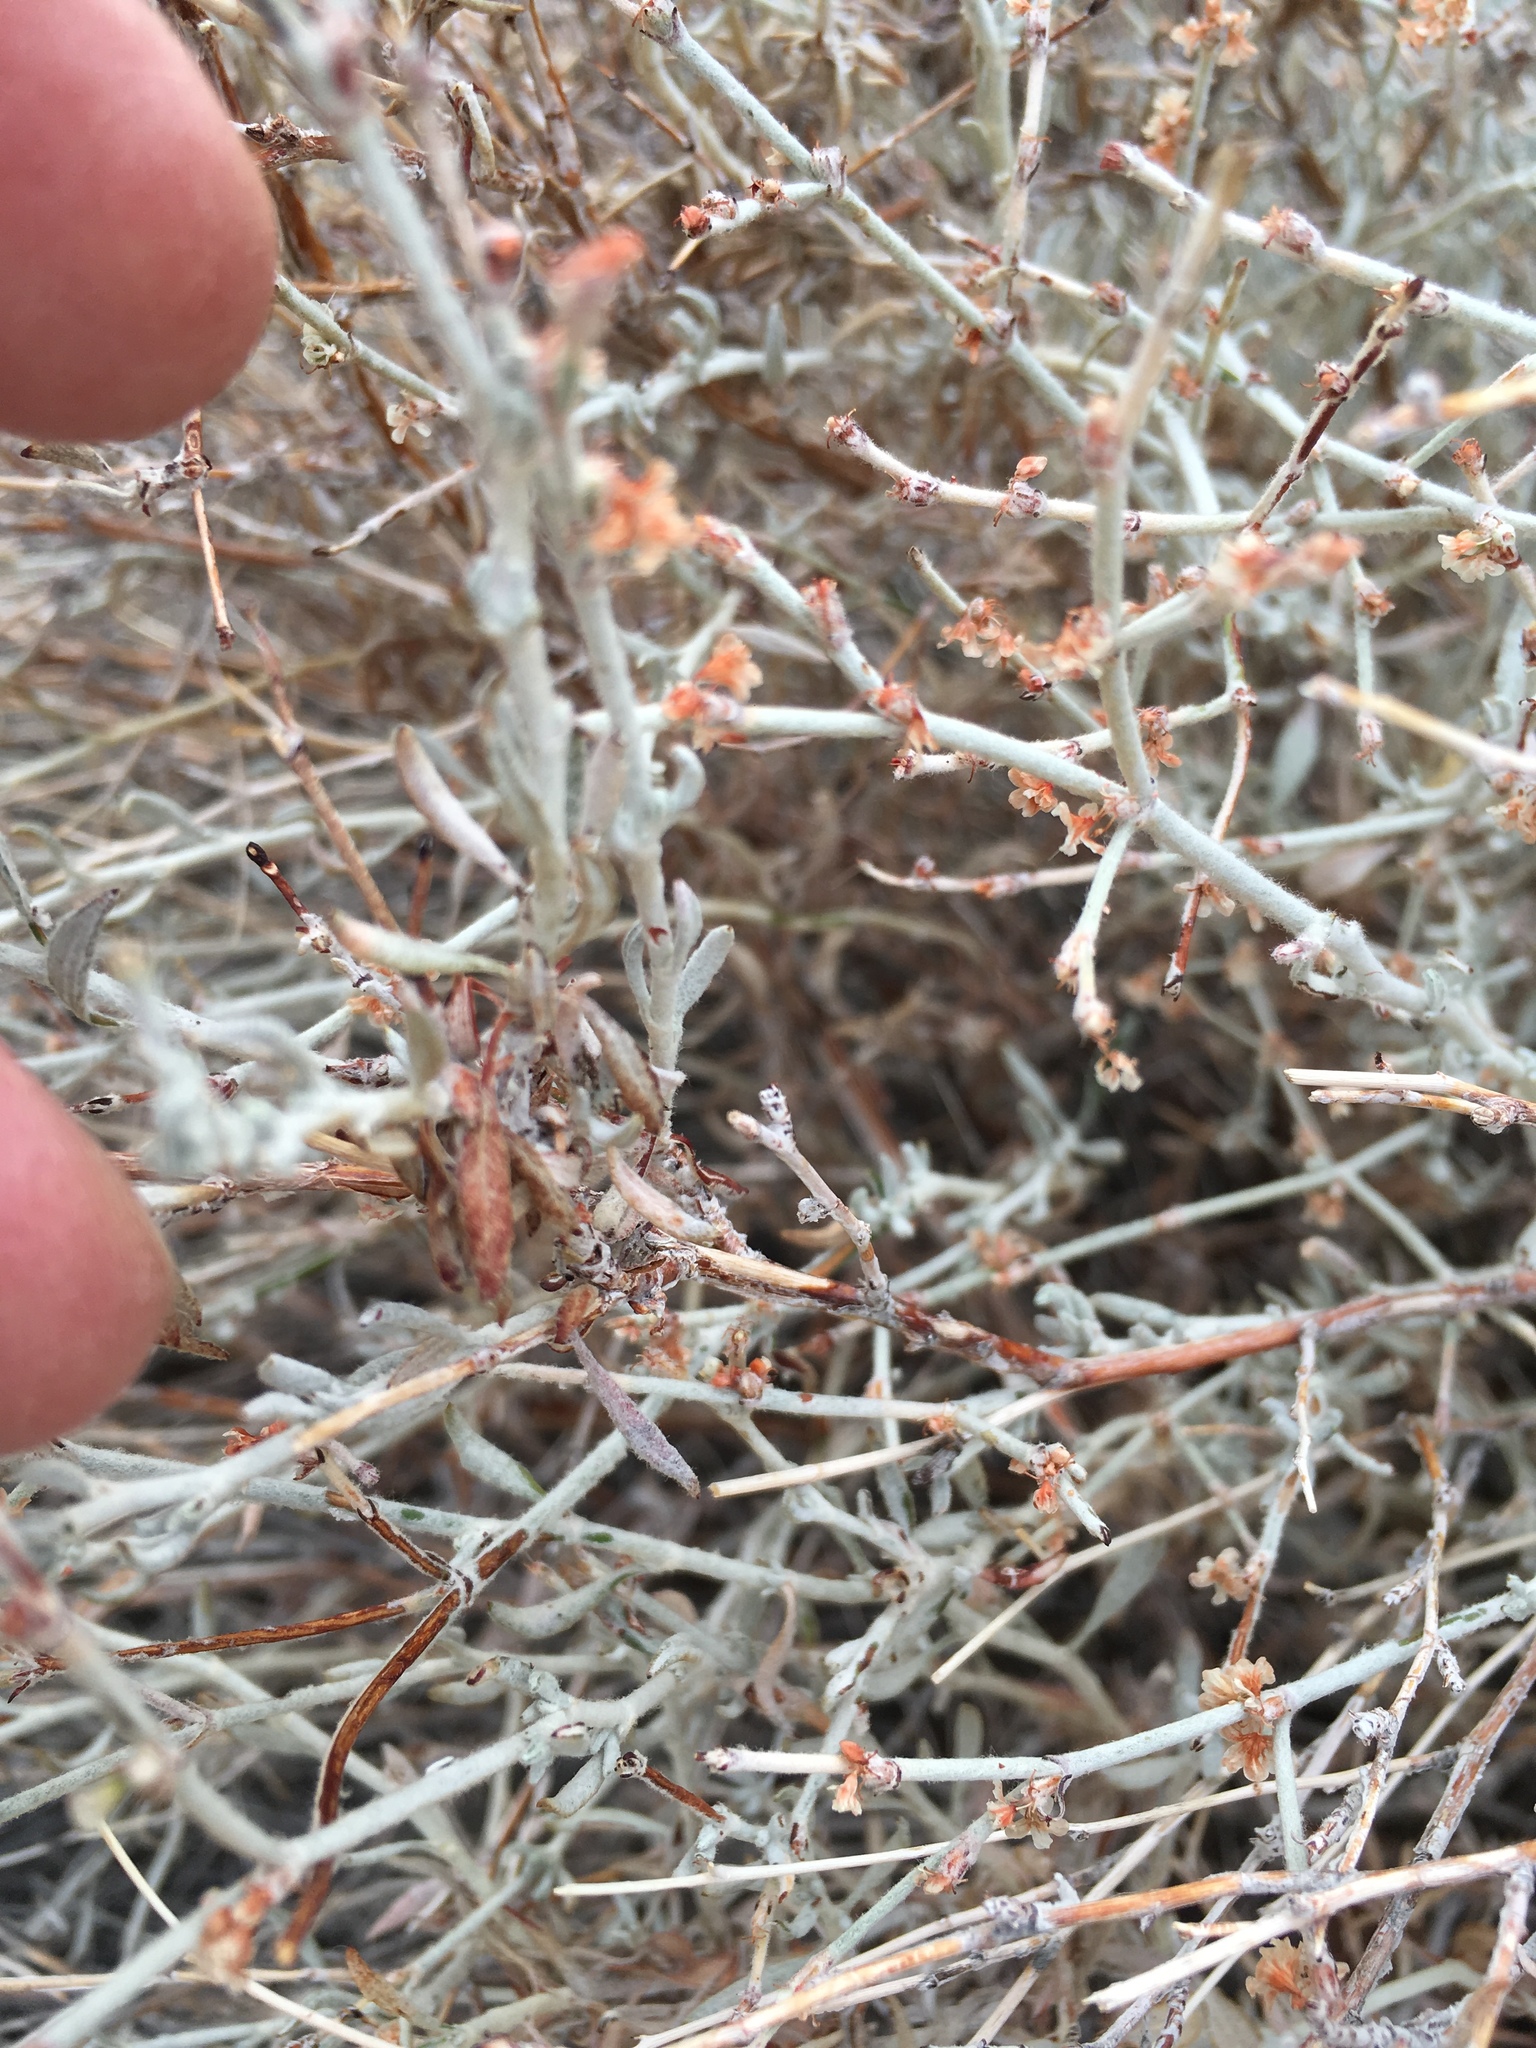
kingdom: Plantae
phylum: Tracheophyta
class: Magnoliopsida
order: Caryophyllales
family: Polygonaceae
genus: Eriogonum
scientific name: Eriogonum wrightii
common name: Bastard-sage
